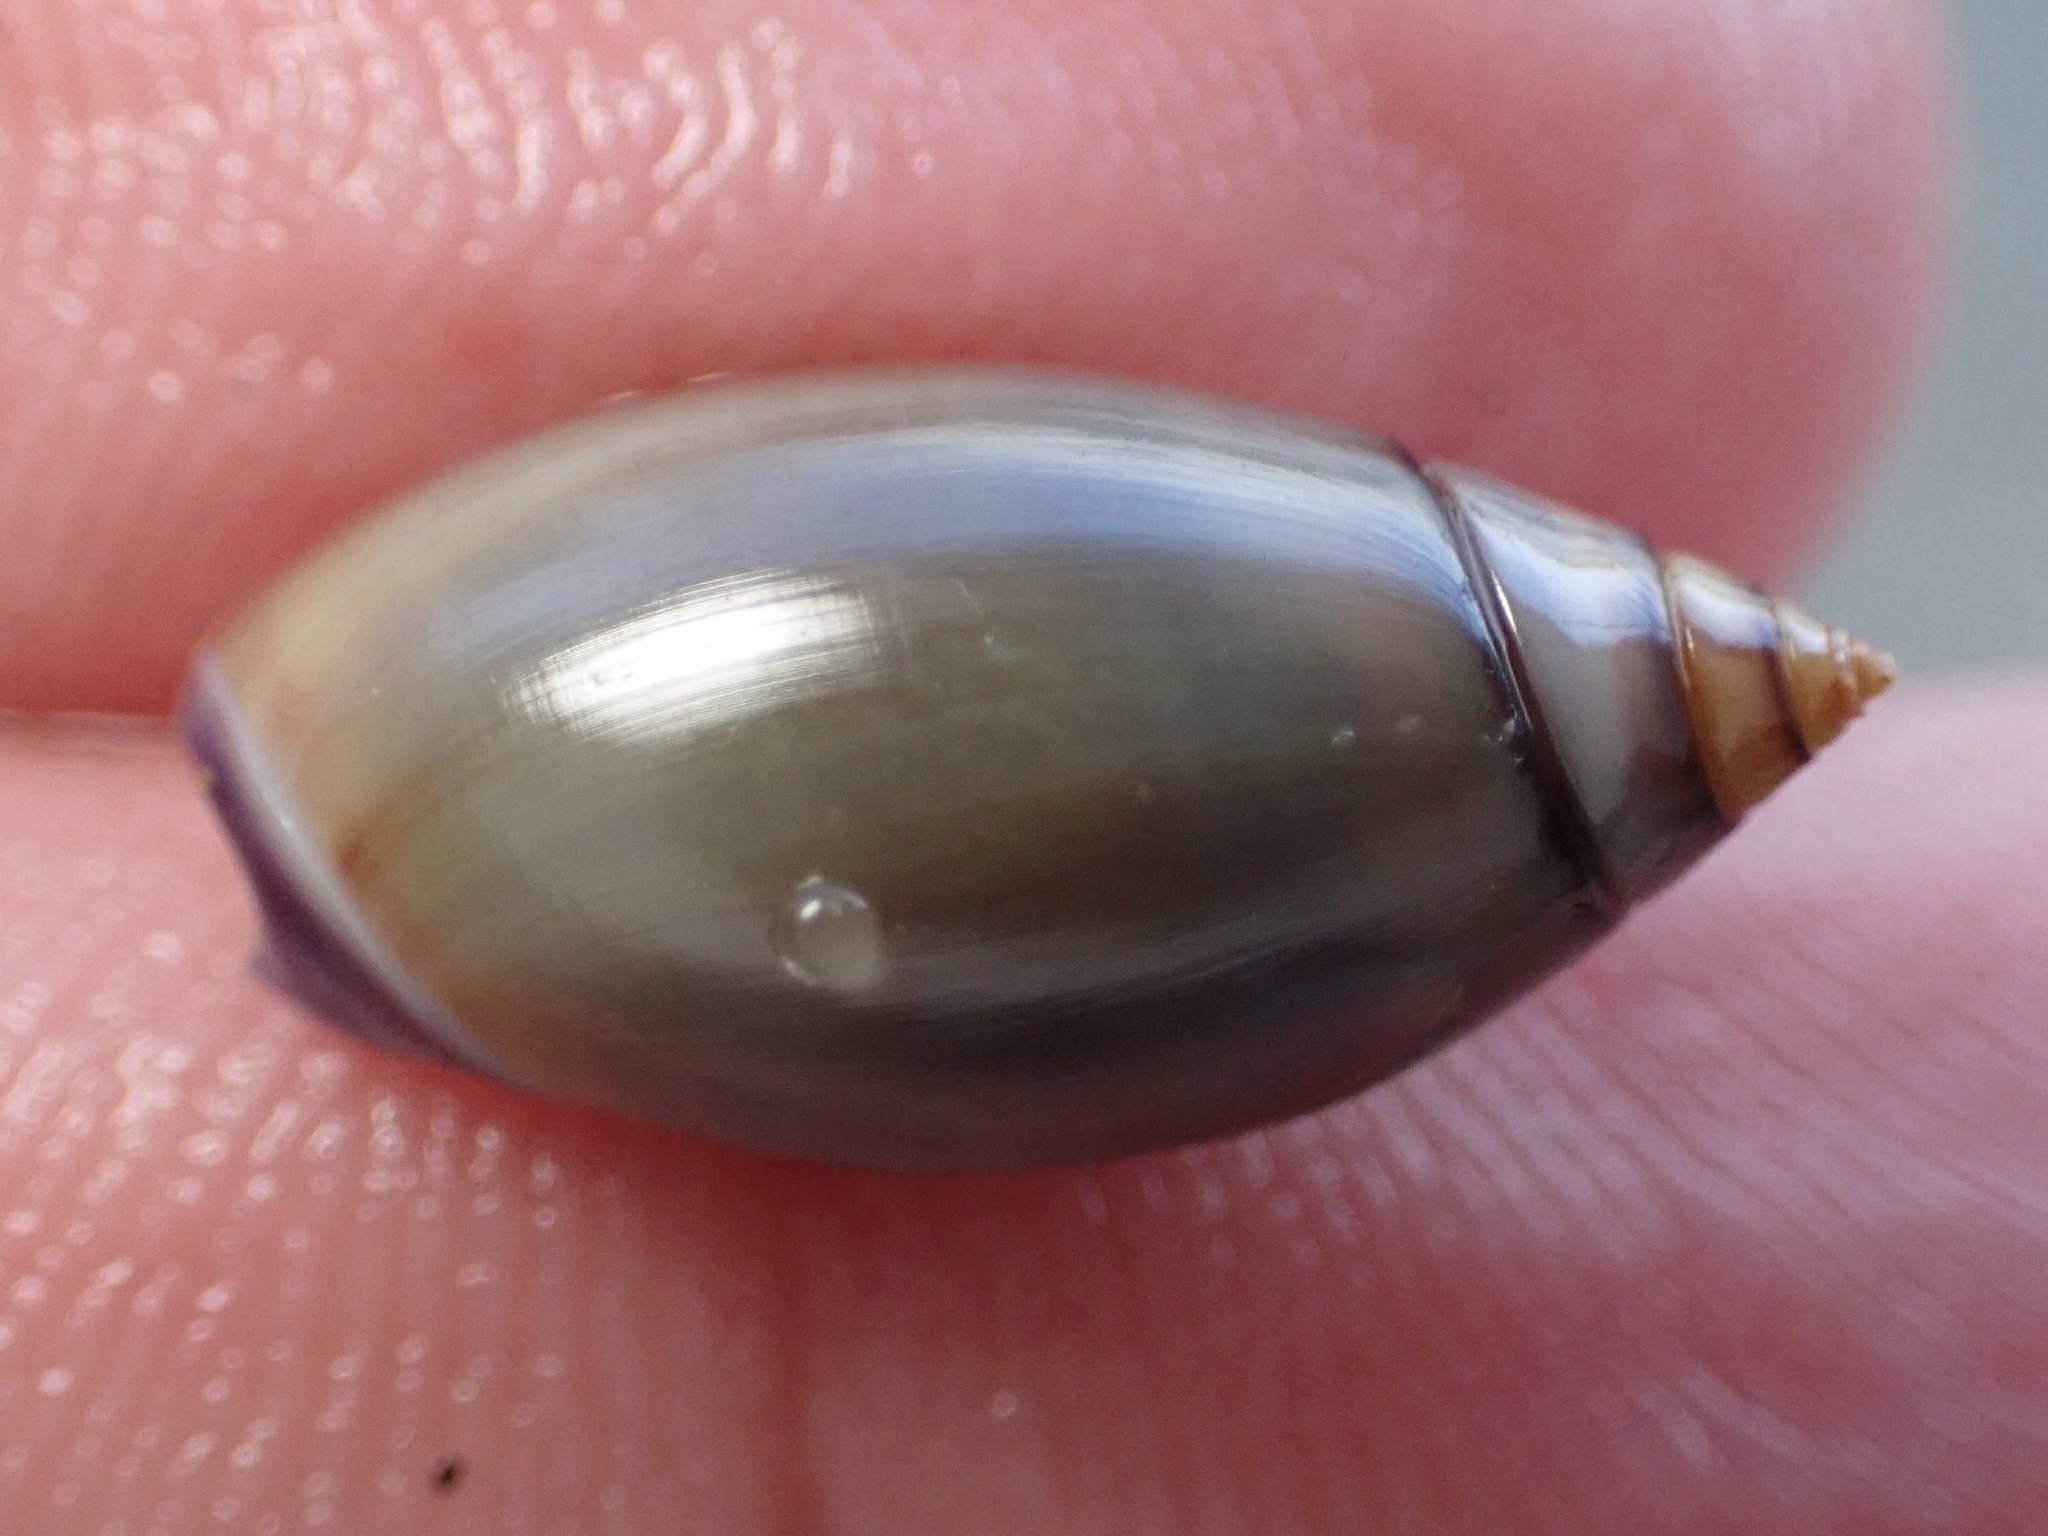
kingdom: Animalia
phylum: Mollusca
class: Gastropoda
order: Neogastropoda
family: Olividae
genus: Callianax
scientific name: Callianax biplicata
